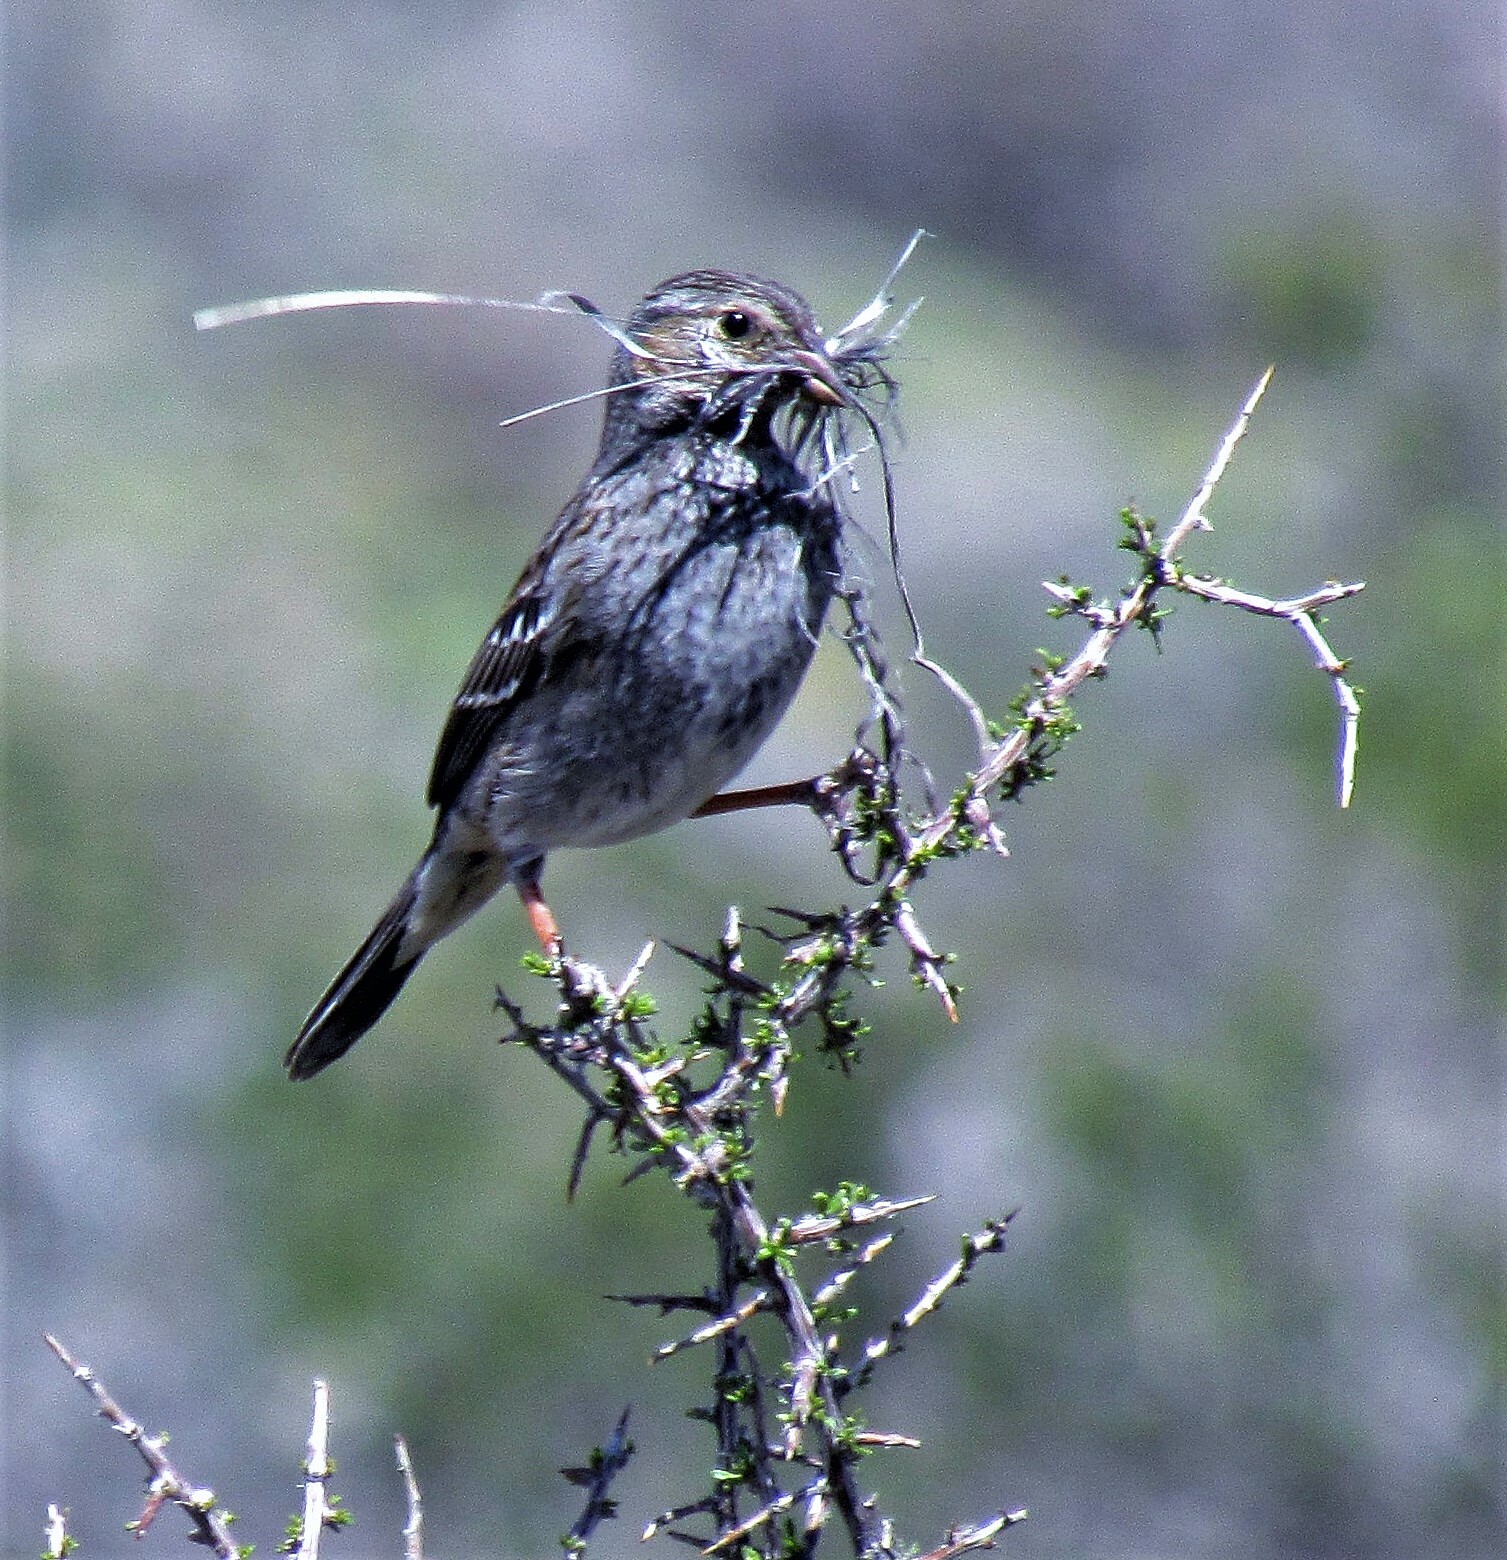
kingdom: Animalia
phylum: Chordata
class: Aves
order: Passeriformes
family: Thraupidae
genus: Rhopospina
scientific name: Rhopospina fruticeti
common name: Mourning sierra finch
